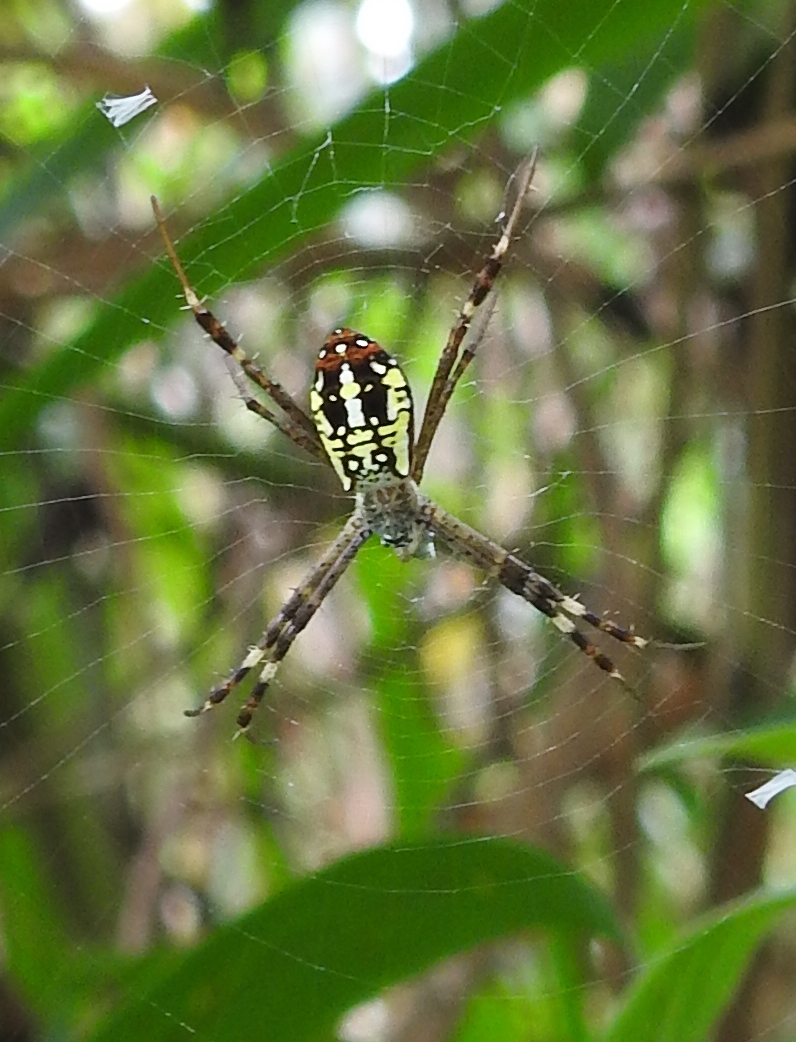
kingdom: Animalia
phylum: Arthropoda
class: Arachnida
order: Araneae
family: Araneidae
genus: Argiope
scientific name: Argiope dang
